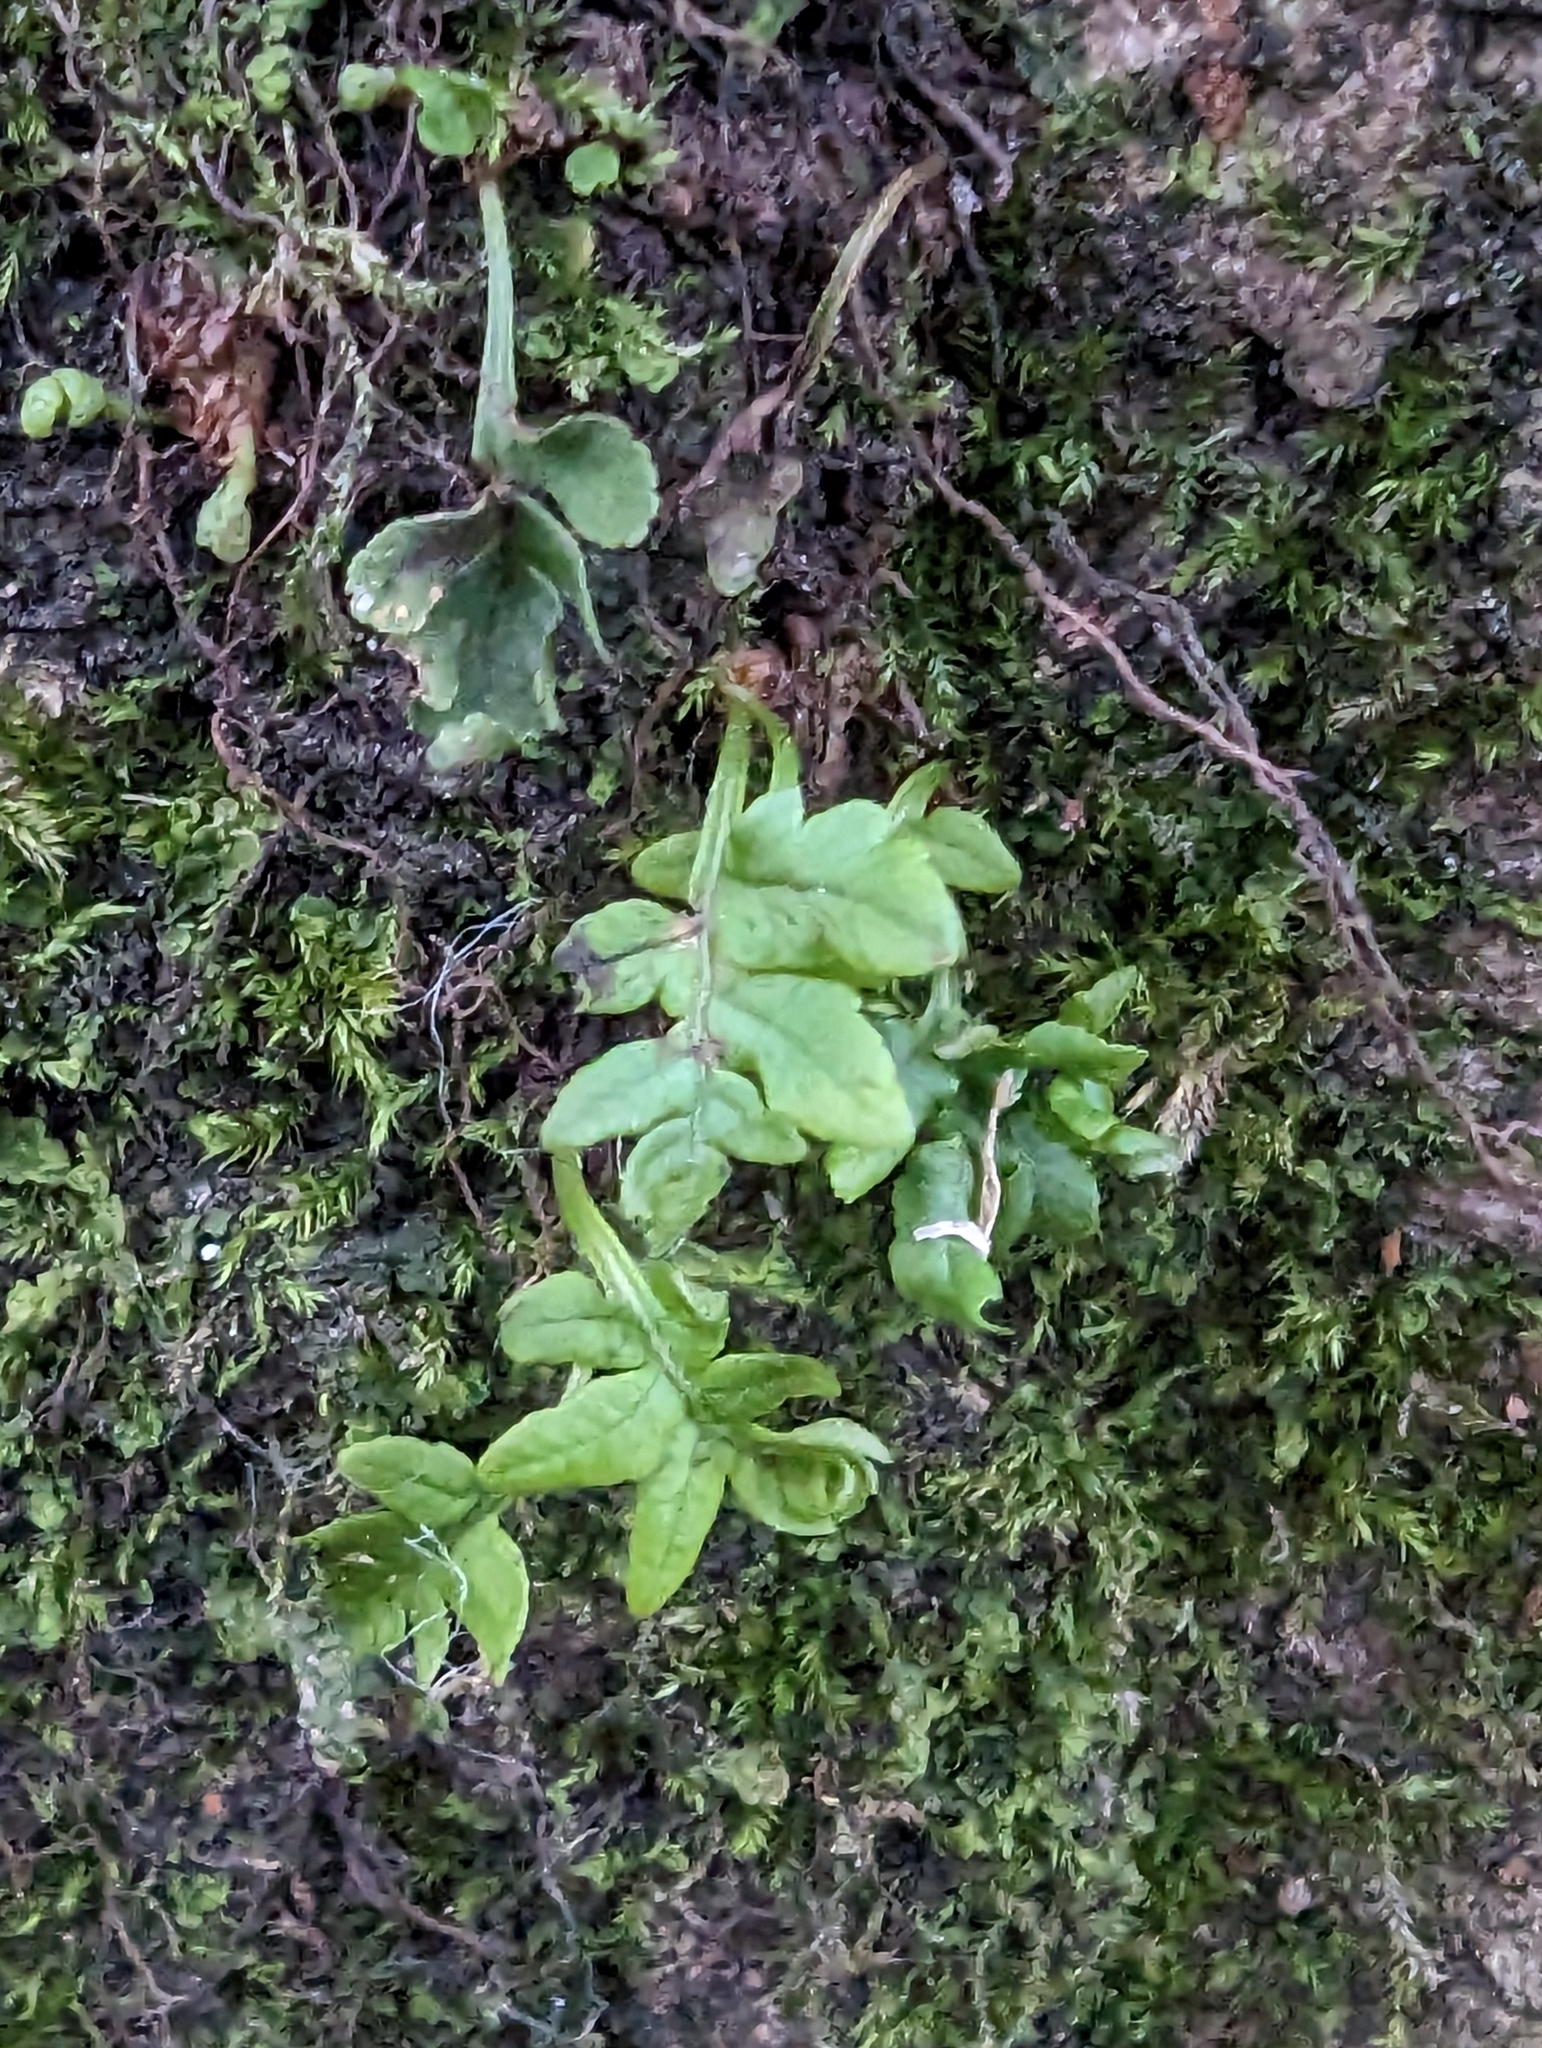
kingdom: Plantae
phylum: Tracheophyta
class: Polypodiopsida
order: Polypodiales
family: Polypodiaceae
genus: Polypodium
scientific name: Polypodium glycyrrhiza
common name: Licorice fern
